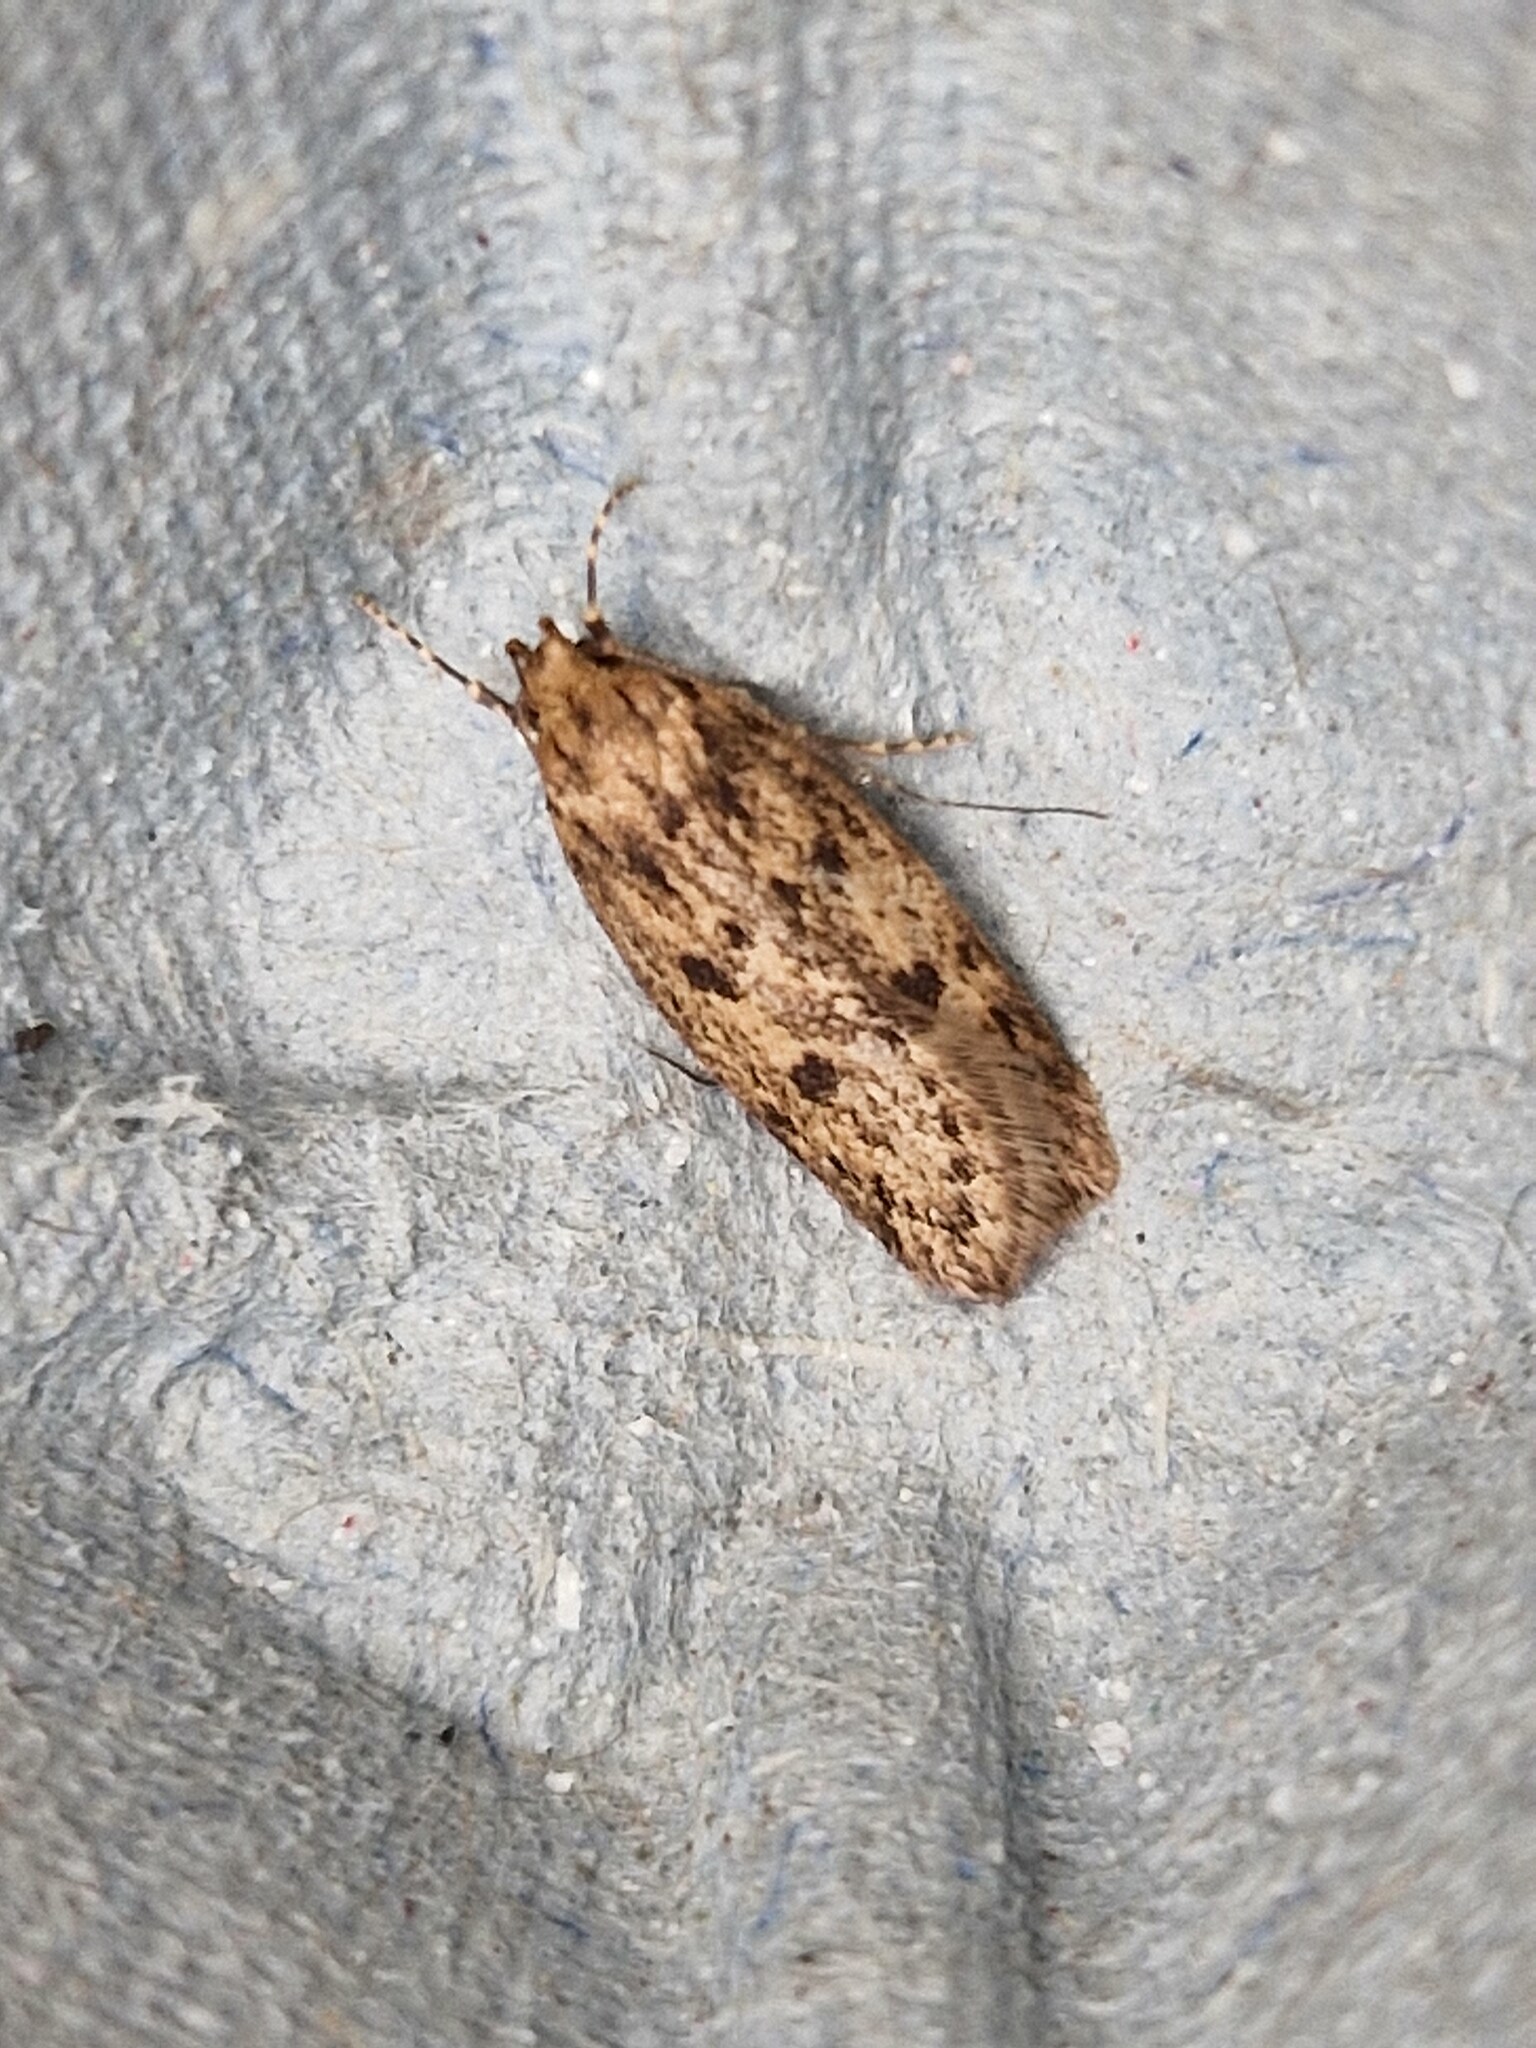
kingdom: Animalia
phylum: Arthropoda
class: Insecta
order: Lepidoptera
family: Oecophoridae
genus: Hofmannophila
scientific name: Hofmannophila pseudospretella
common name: Brown house moth
